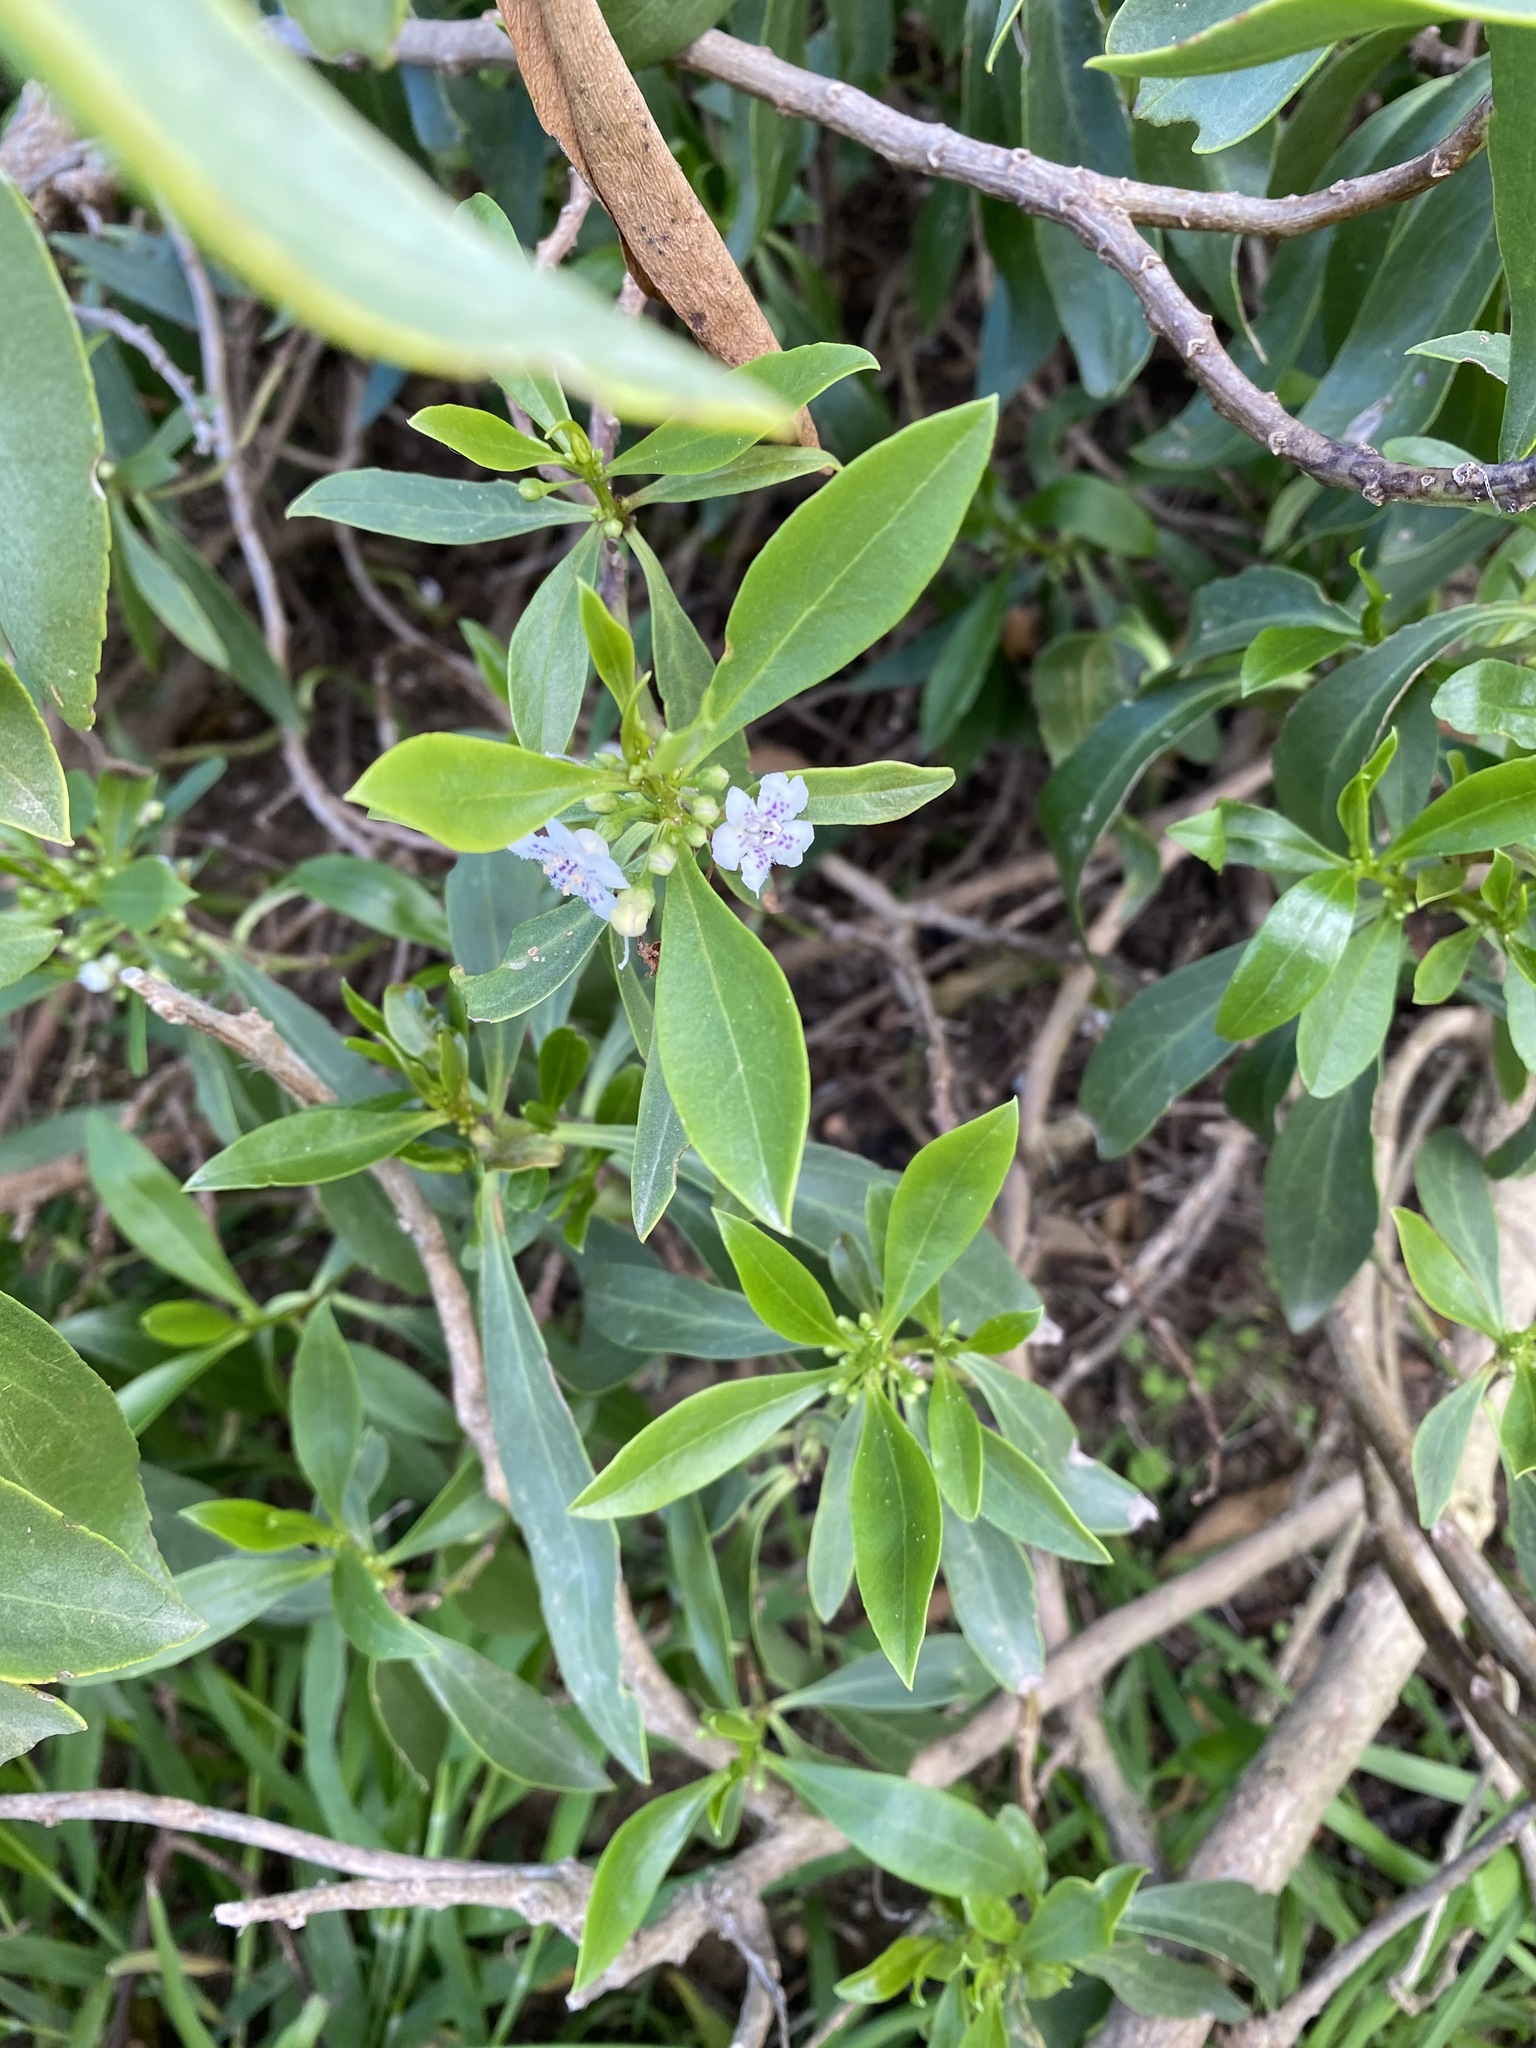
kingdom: Plantae
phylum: Tracheophyta
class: Magnoliopsida
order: Lamiales
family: Scrophulariaceae
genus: Myoporum
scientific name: Myoporum insulare
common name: Common boobialla
